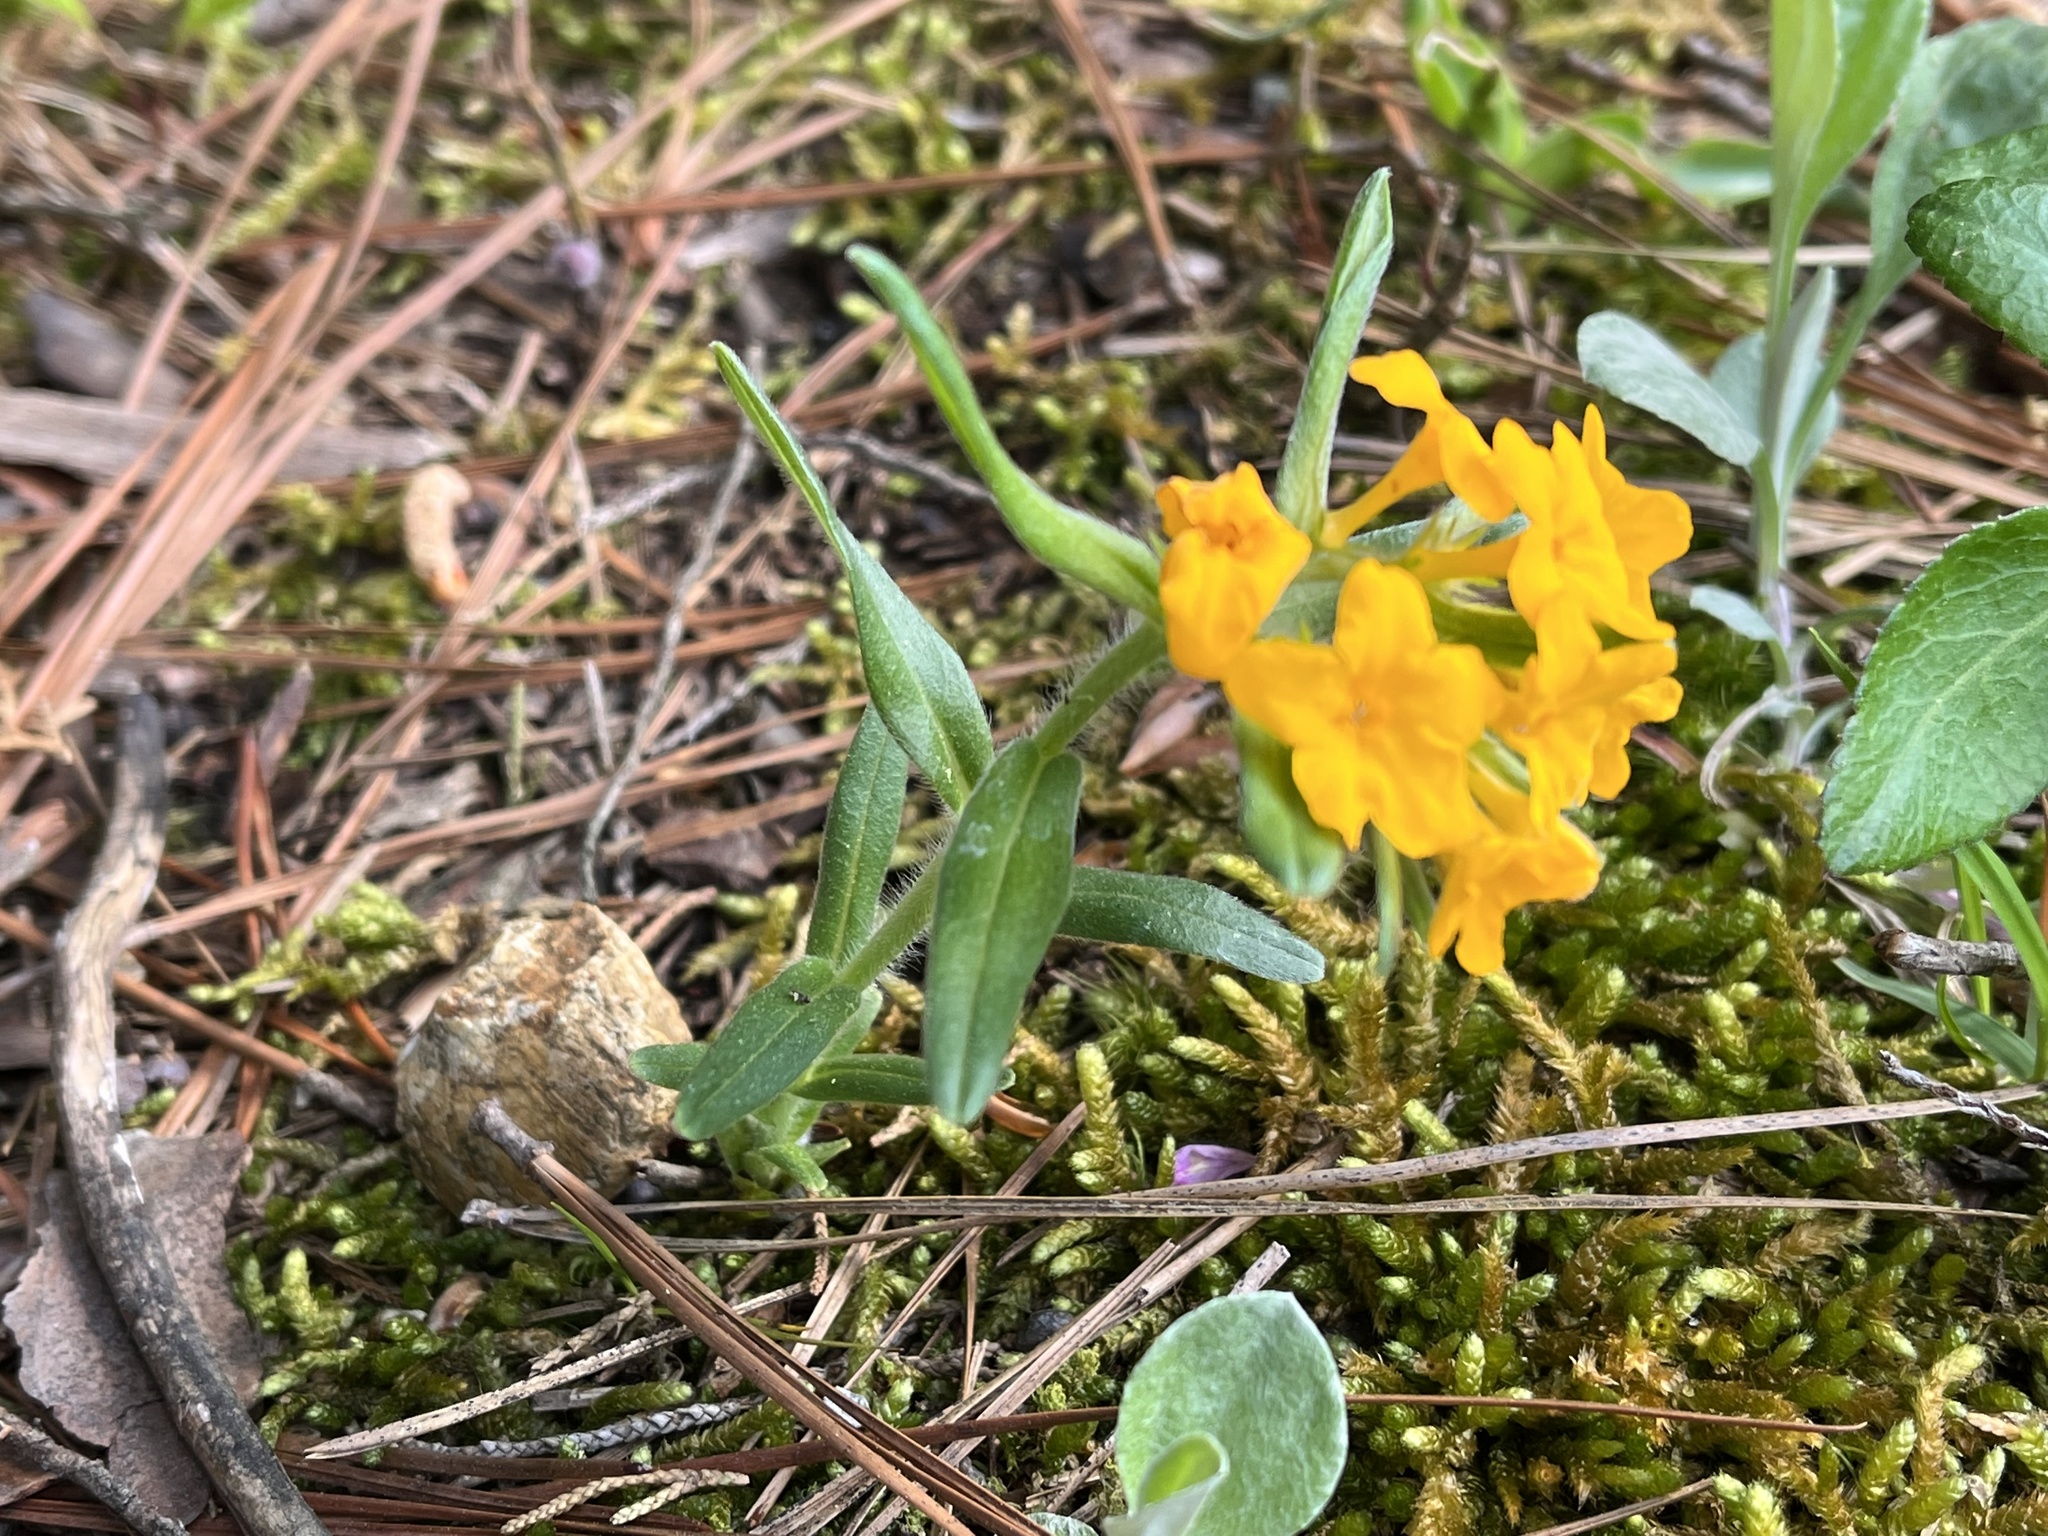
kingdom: Plantae
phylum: Tracheophyta
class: Magnoliopsida
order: Boraginales
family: Boraginaceae
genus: Lithospermum
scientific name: Lithospermum canescens
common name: Hoary puccoon
